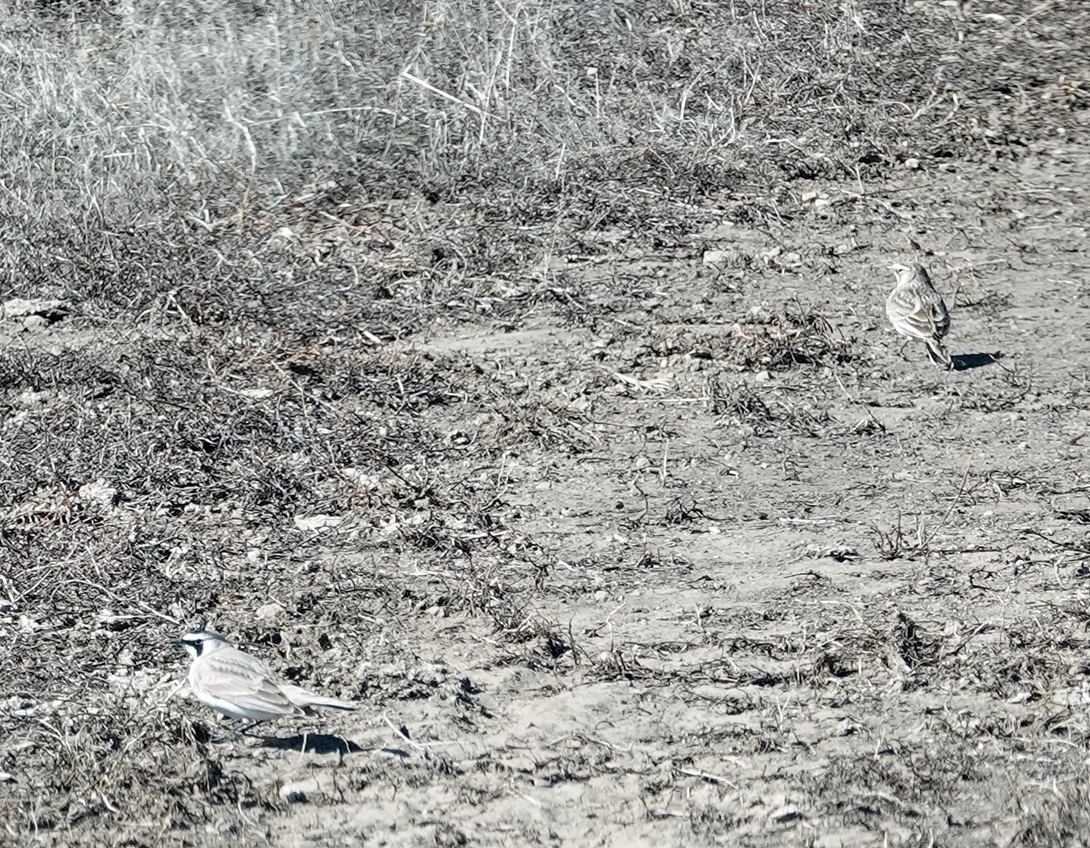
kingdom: Animalia
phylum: Chordata
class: Aves
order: Passeriformes
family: Alaudidae
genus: Eremophila
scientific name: Eremophila alpestris
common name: Horned lark
